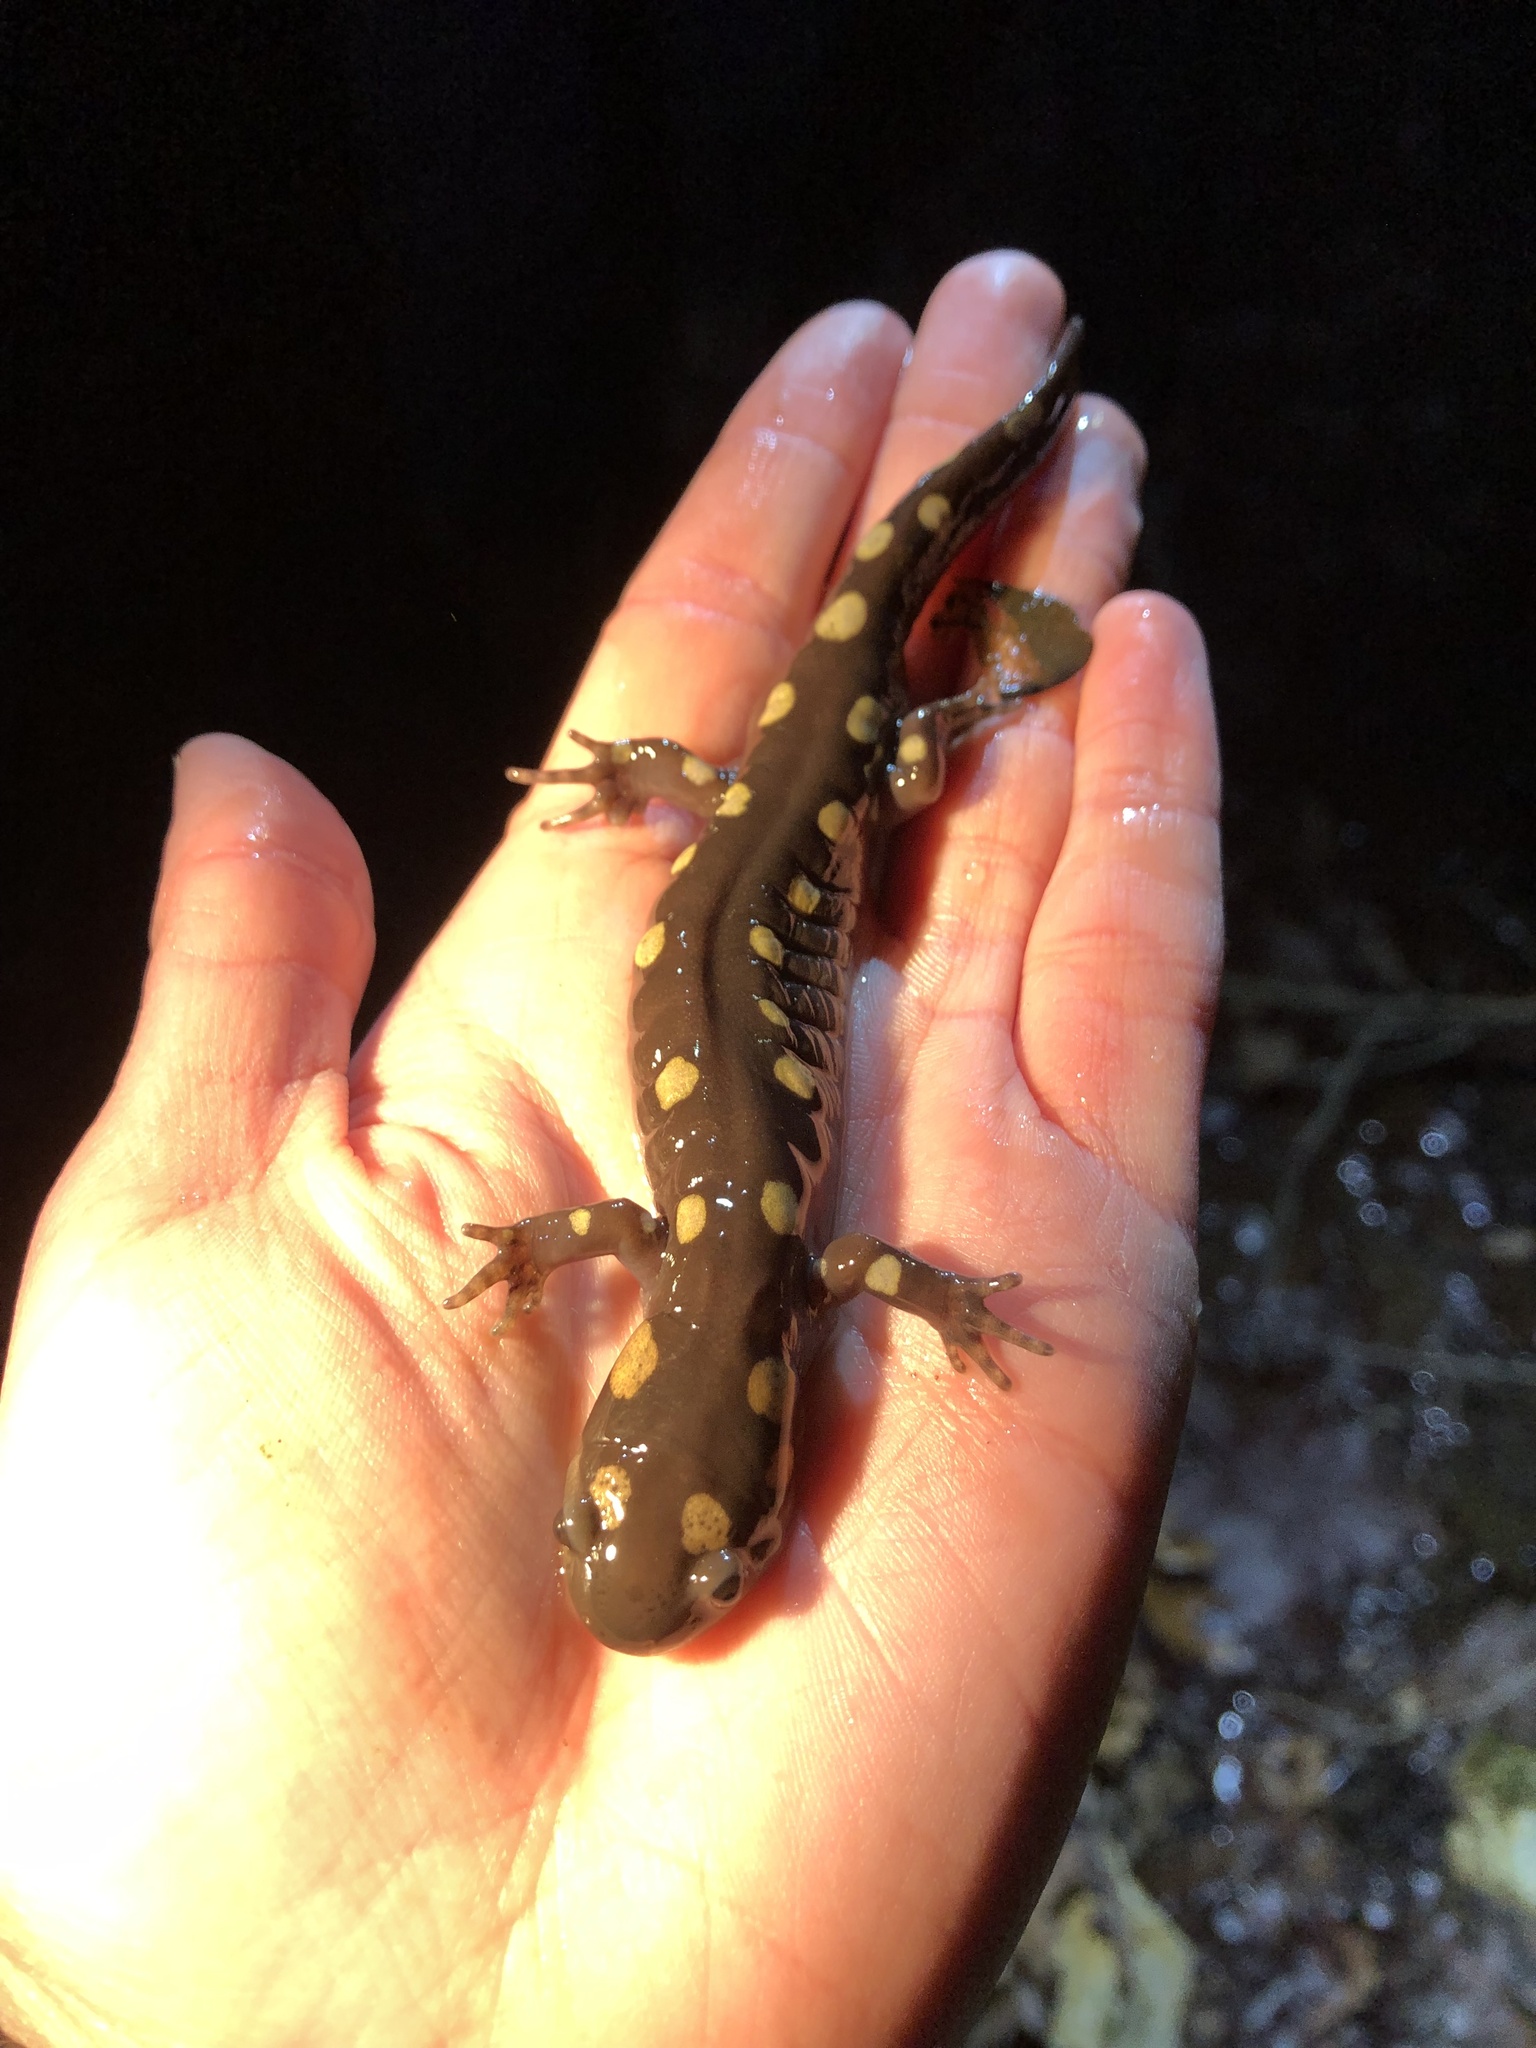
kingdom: Animalia
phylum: Chordata
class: Amphibia
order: Caudata
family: Ambystomatidae
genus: Ambystoma
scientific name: Ambystoma maculatum
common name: Spotted salamander
